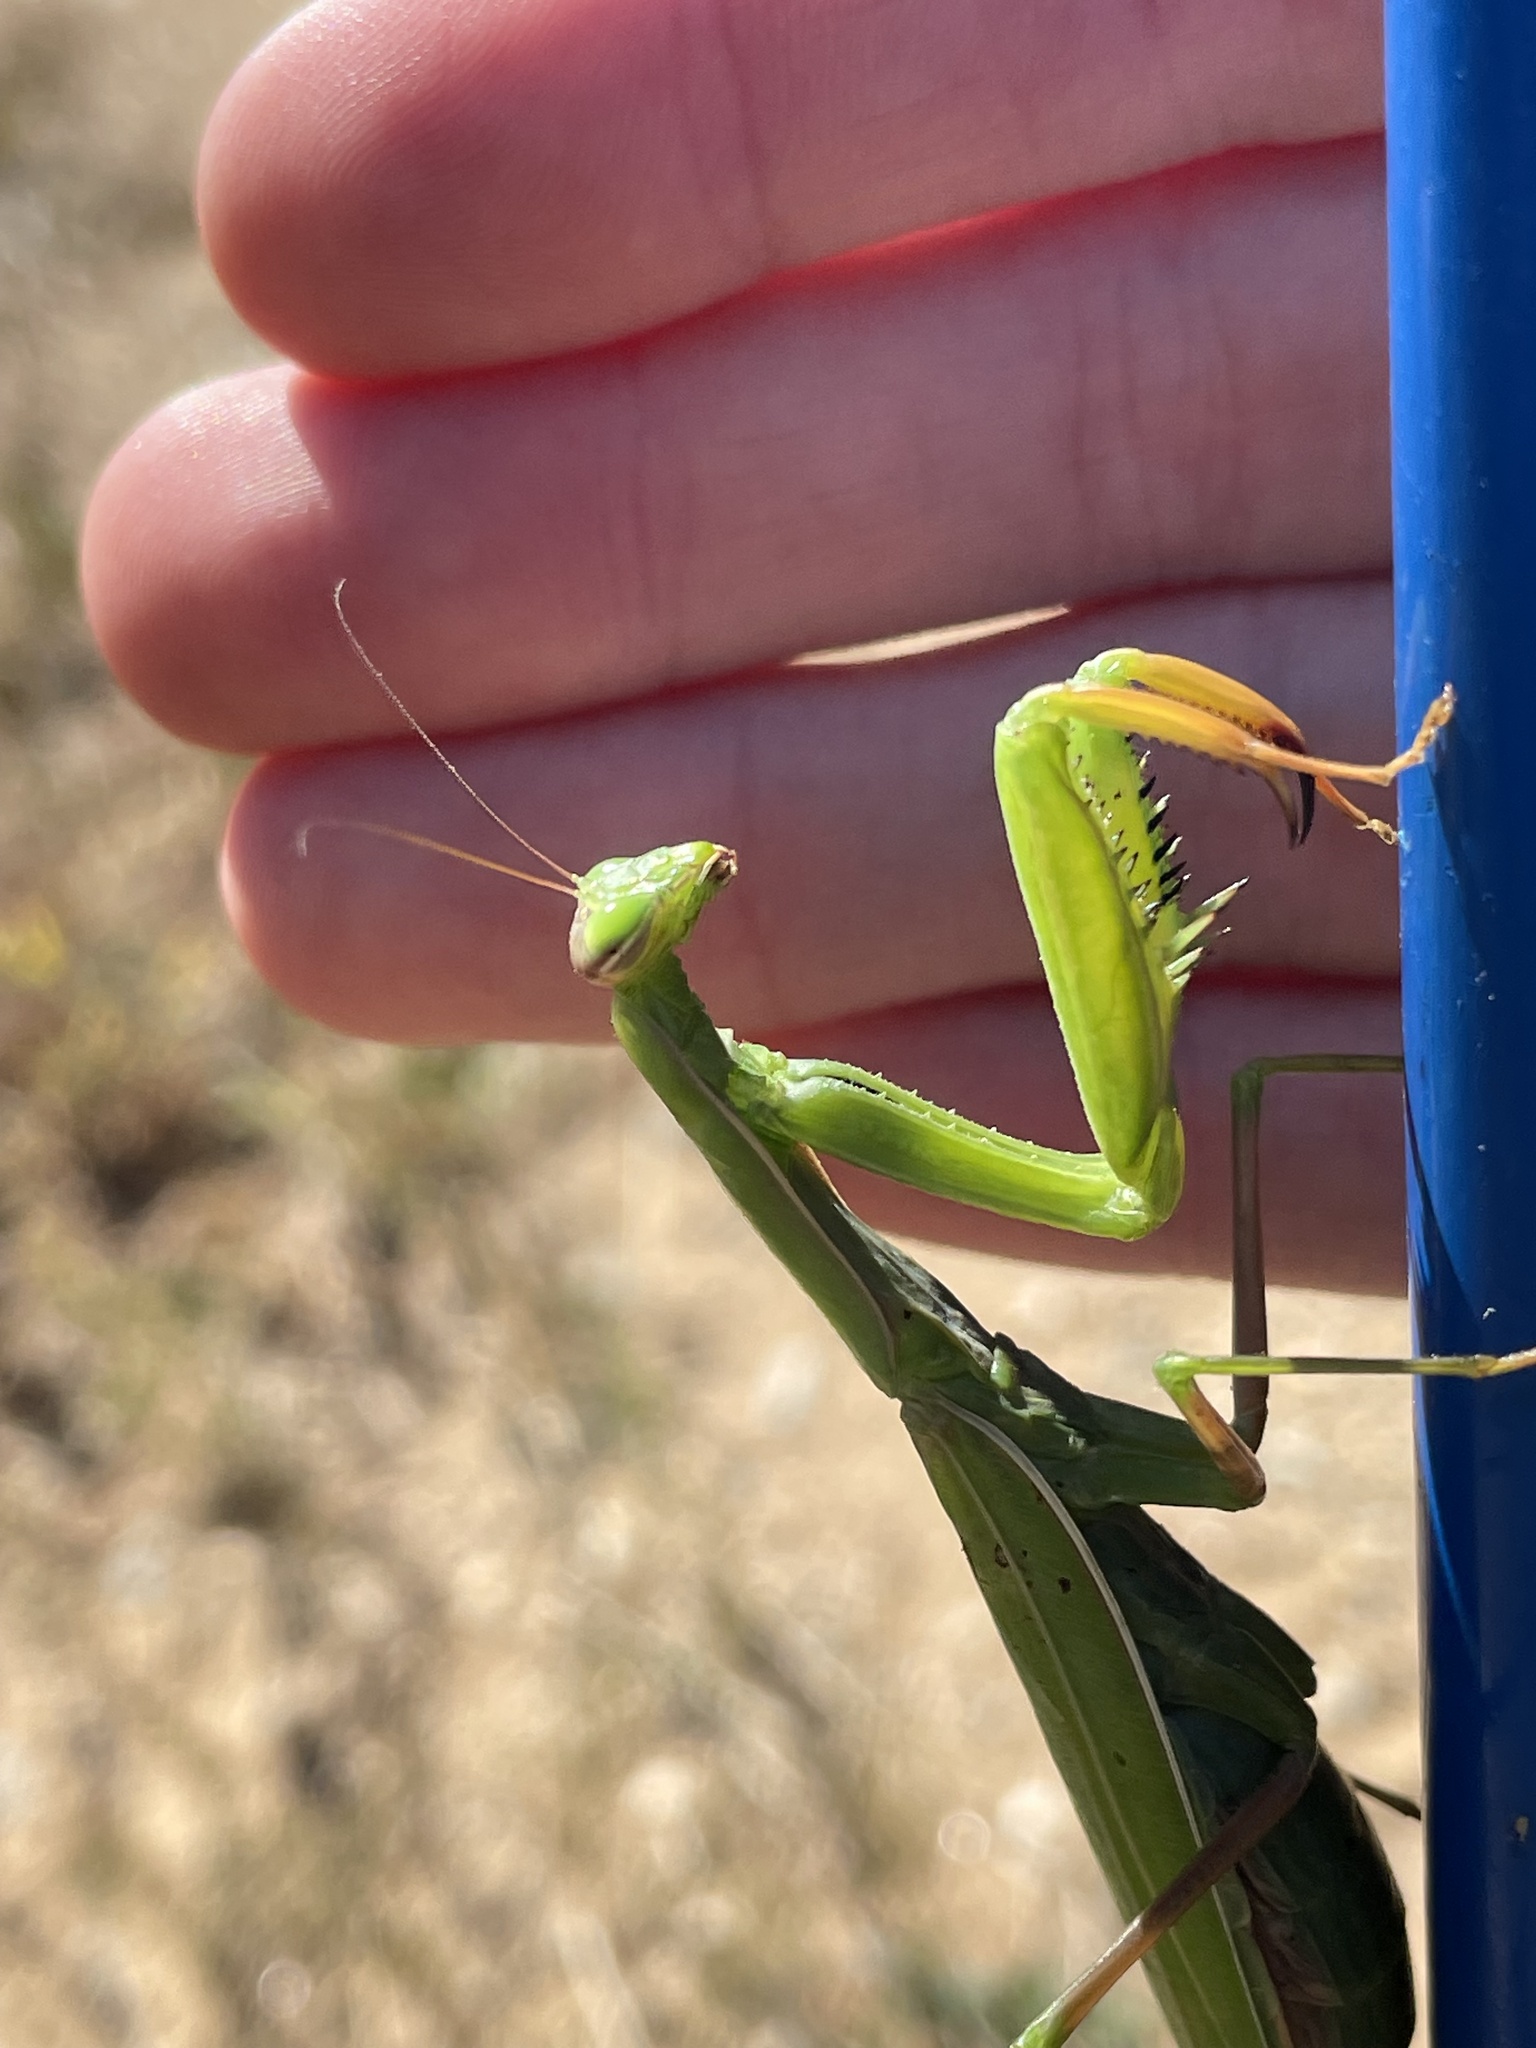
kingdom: Animalia
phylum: Arthropoda
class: Insecta
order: Mantodea
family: Mantidae
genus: Mantis
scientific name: Mantis religiosa
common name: Praying mantis
